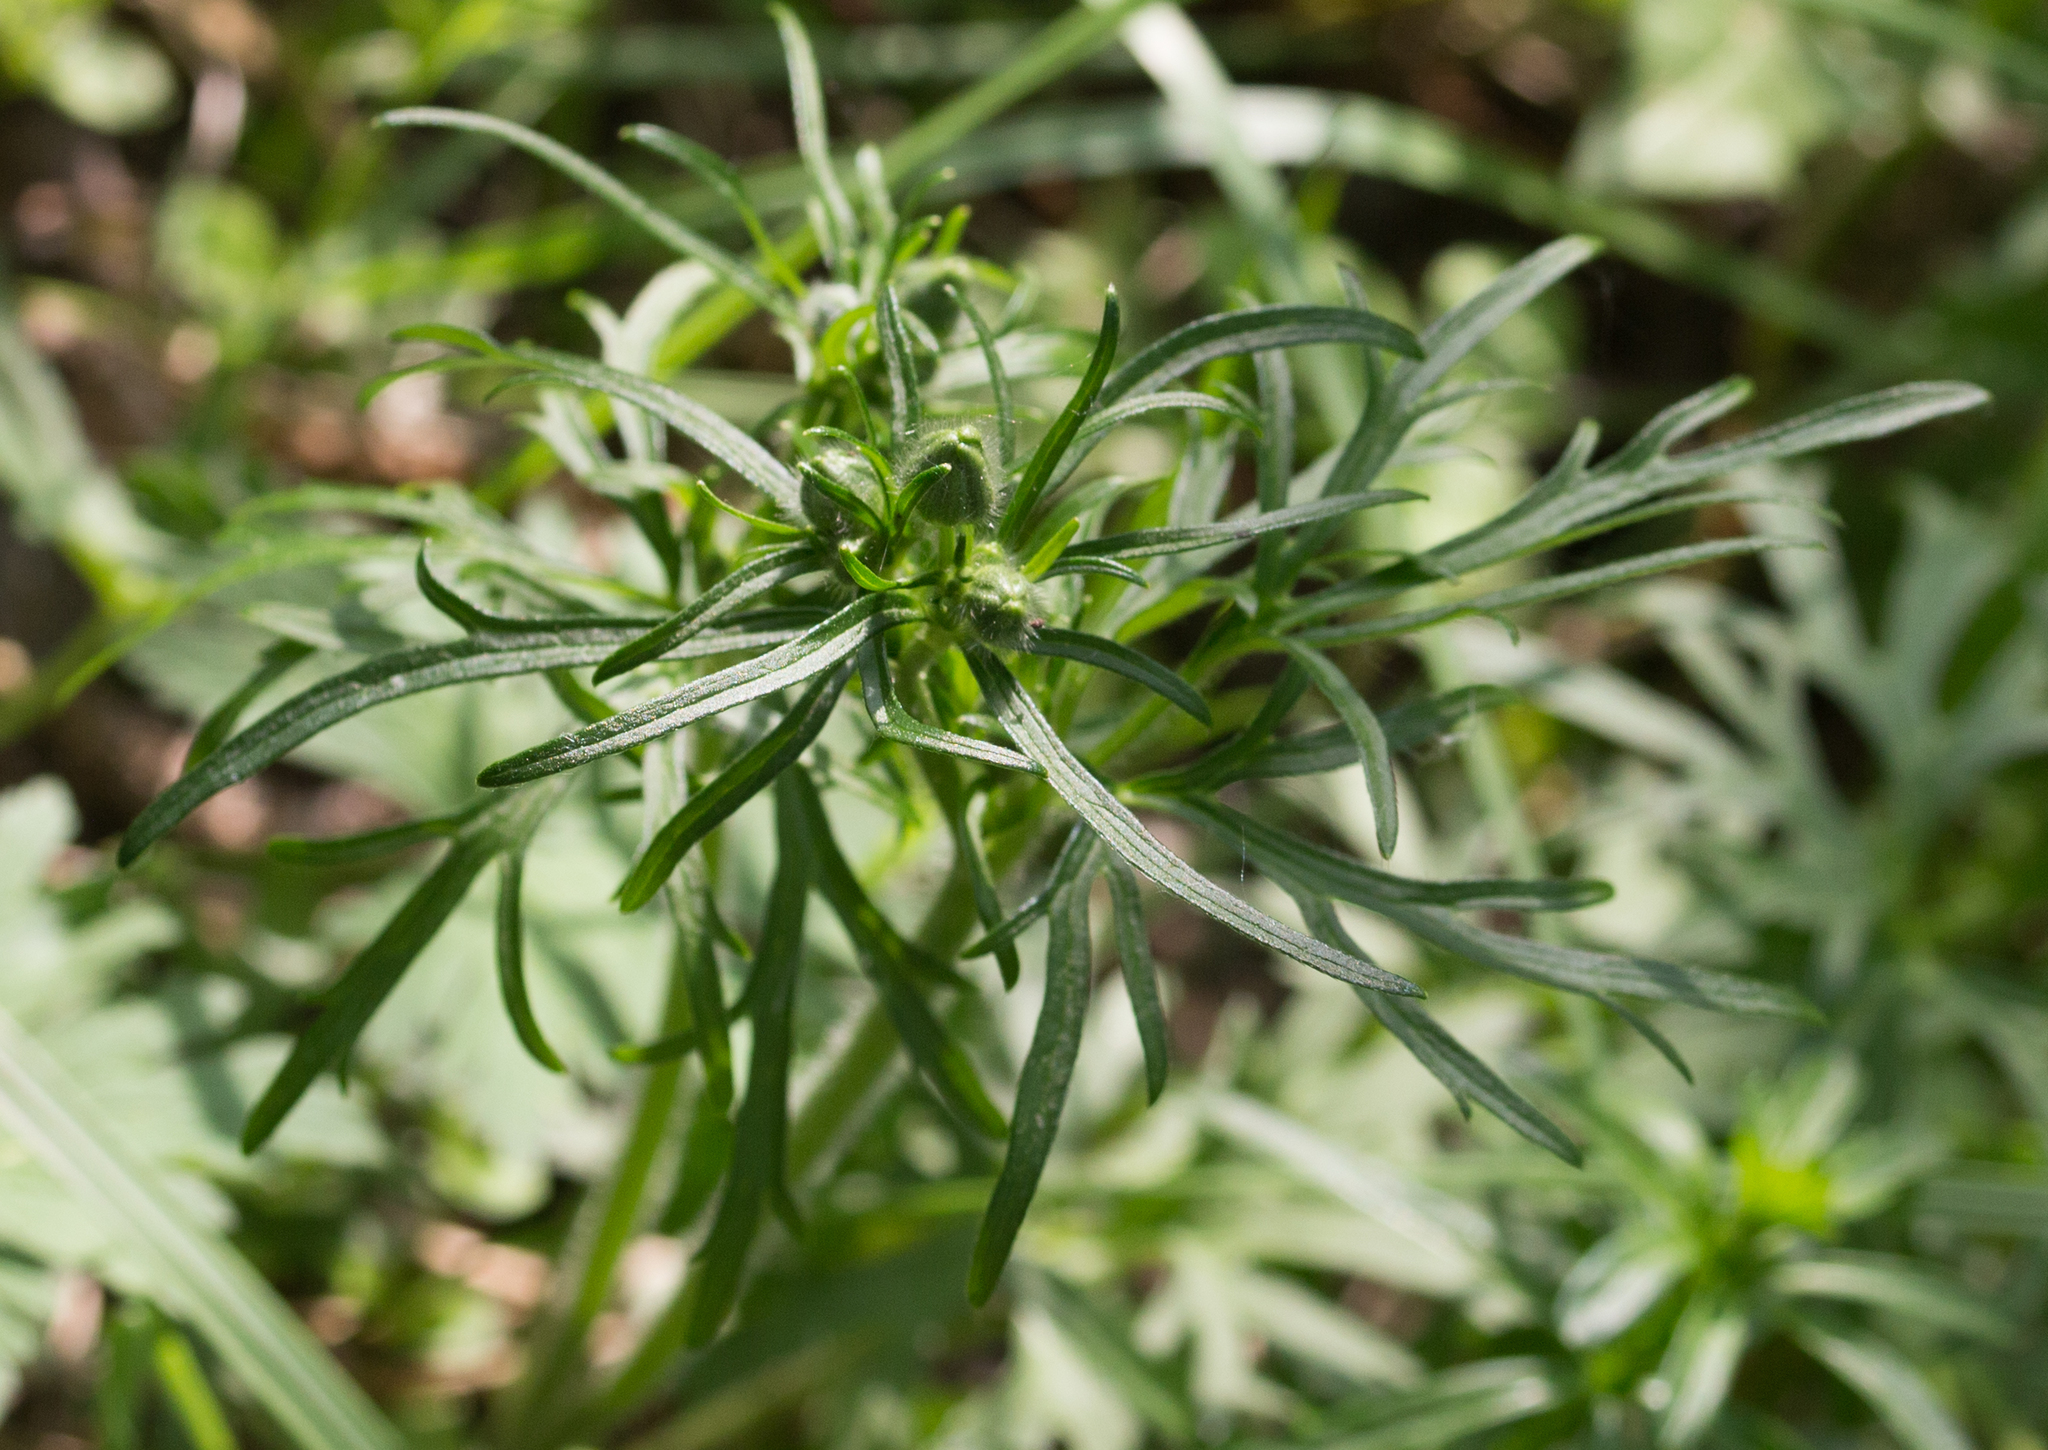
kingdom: Plantae
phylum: Tracheophyta
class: Magnoliopsida
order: Ranunculales
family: Ranunculaceae
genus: Ranunculus
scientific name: Ranunculus polyanthemos
